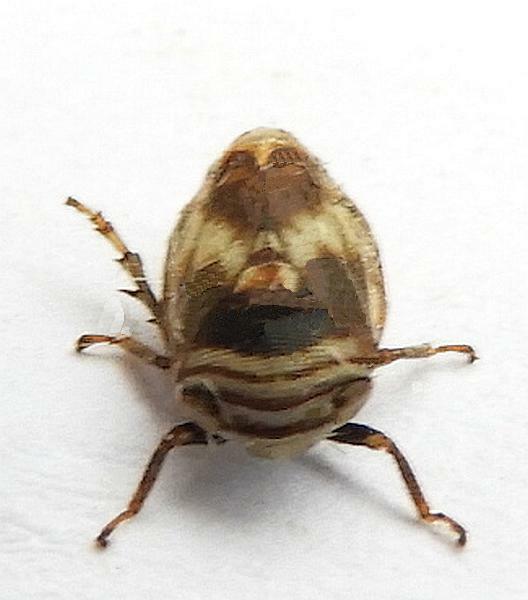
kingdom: Animalia
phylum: Arthropoda
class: Insecta
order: Hemiptera
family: Clastopteridae
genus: Clastoptera
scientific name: Clastoptera obtusa
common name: Alder spittlebug
